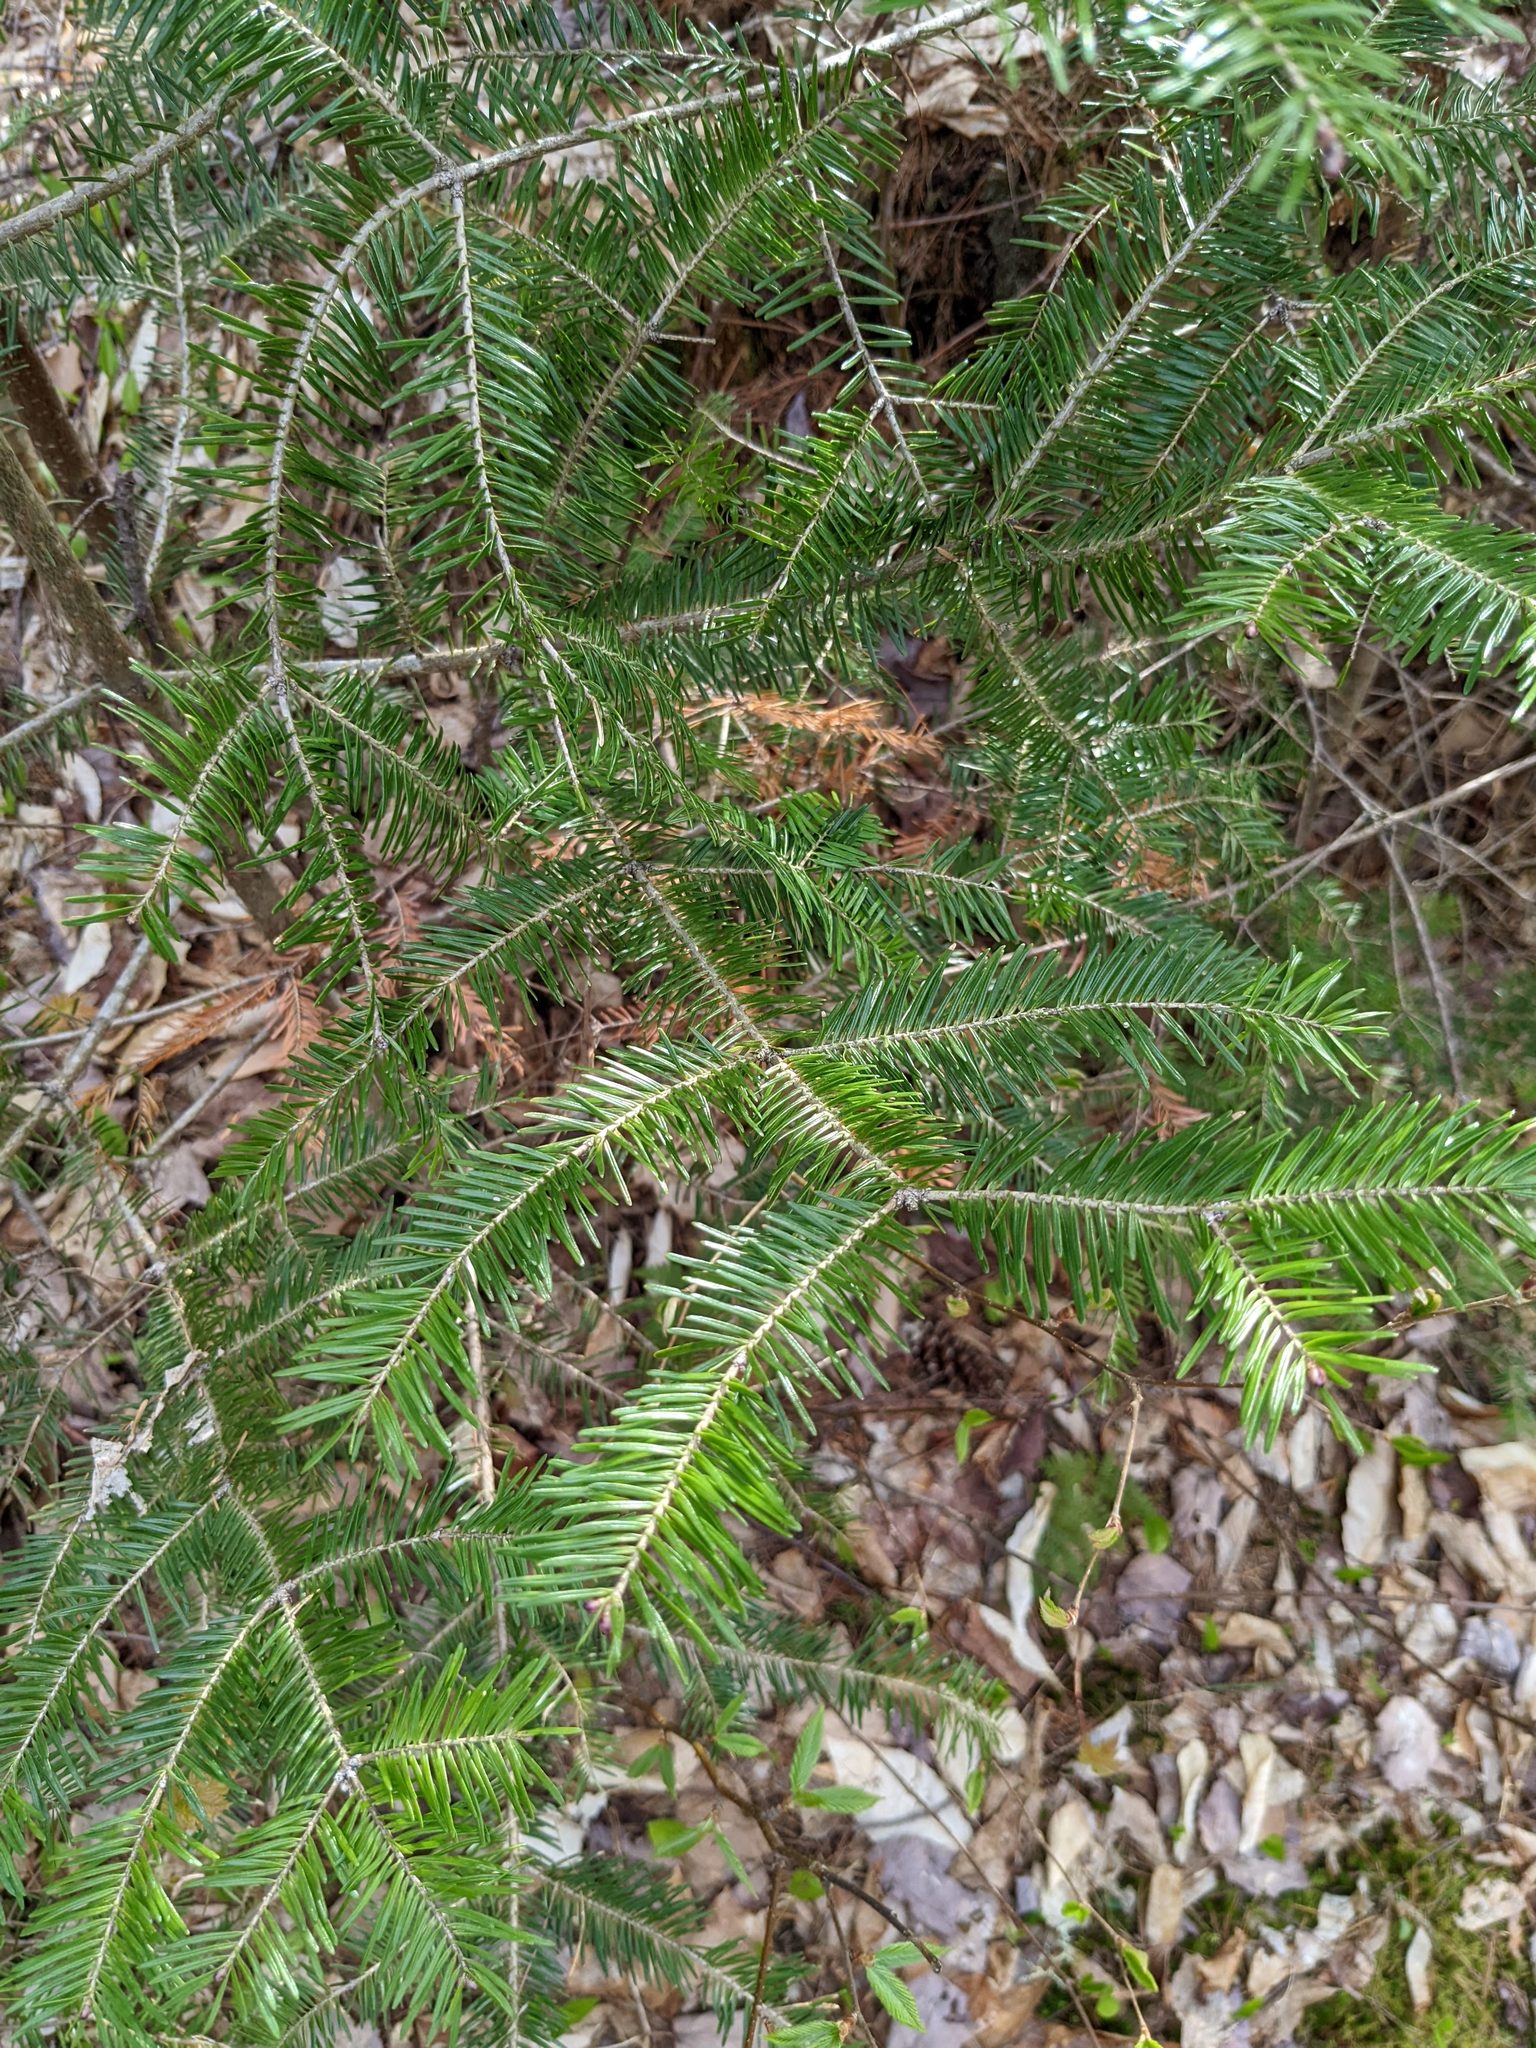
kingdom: Plantae
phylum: Tracheophyta
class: Pinopsida
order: Pinales
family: Pinaceae
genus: Abies
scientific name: Abies balsamea
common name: Balsam fir
